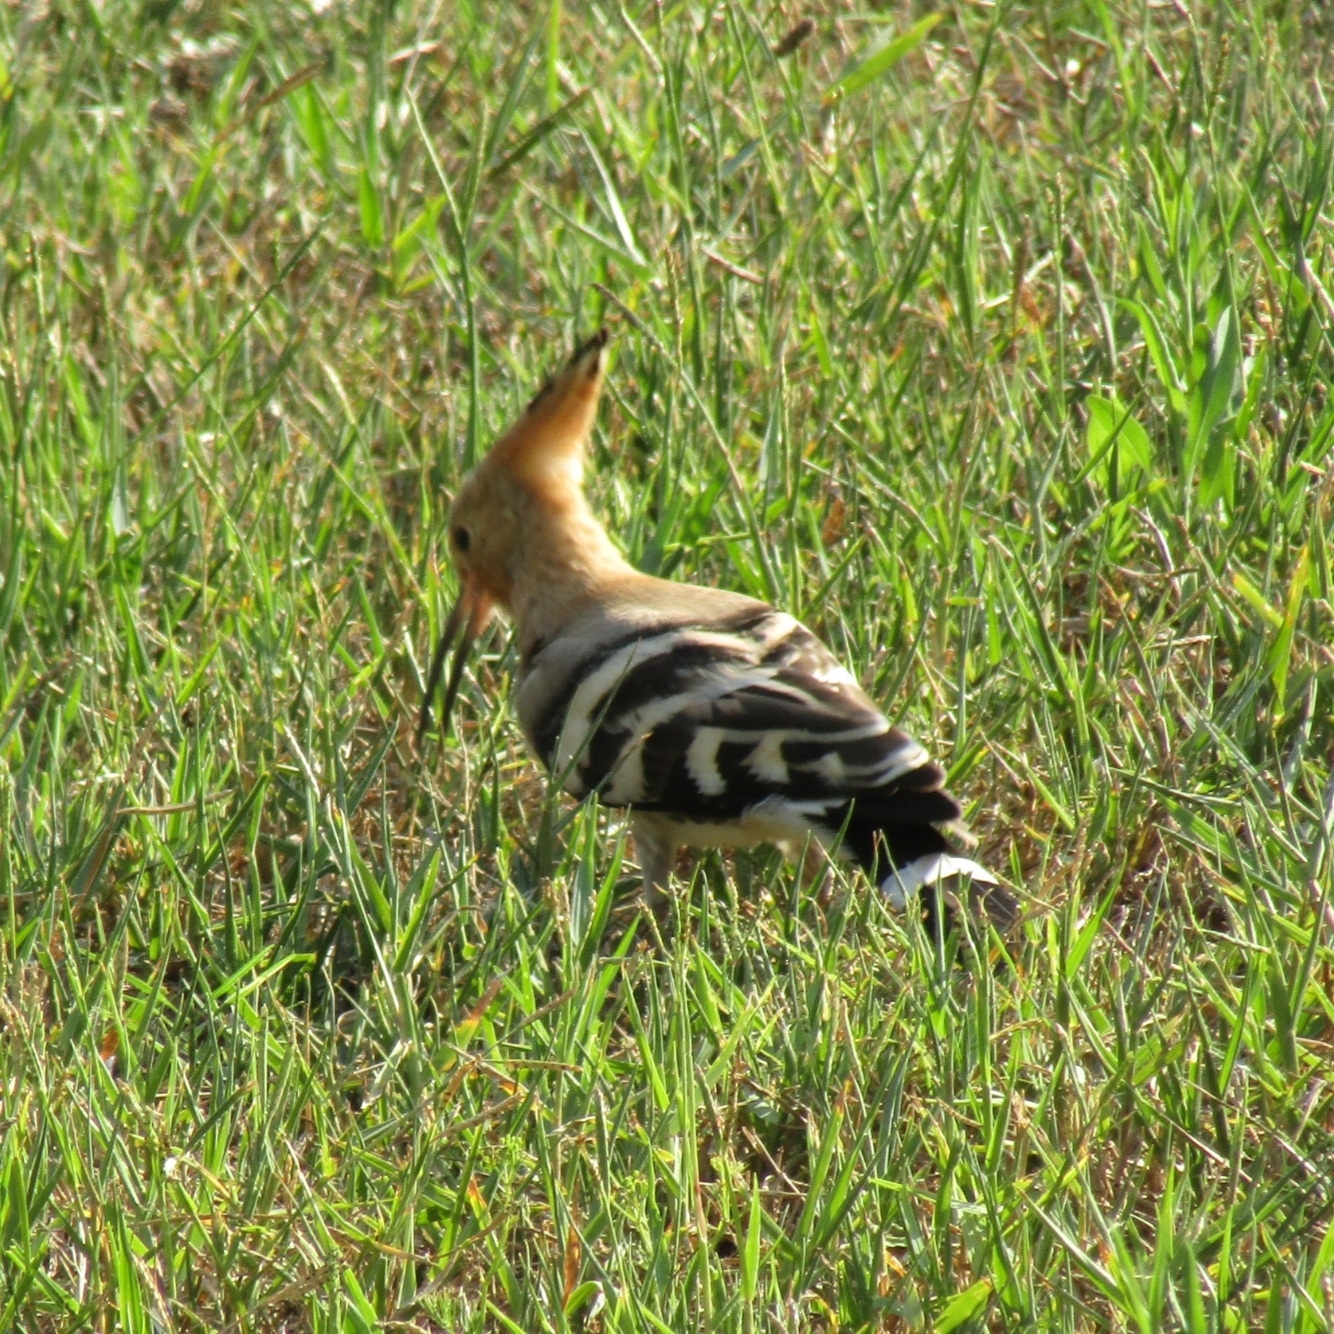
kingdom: Animalia
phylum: Chordata
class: Aves
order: Bucerotiformes
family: Upupidae
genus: Upupa
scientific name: Upupa epops
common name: Eurasian hoopoe
